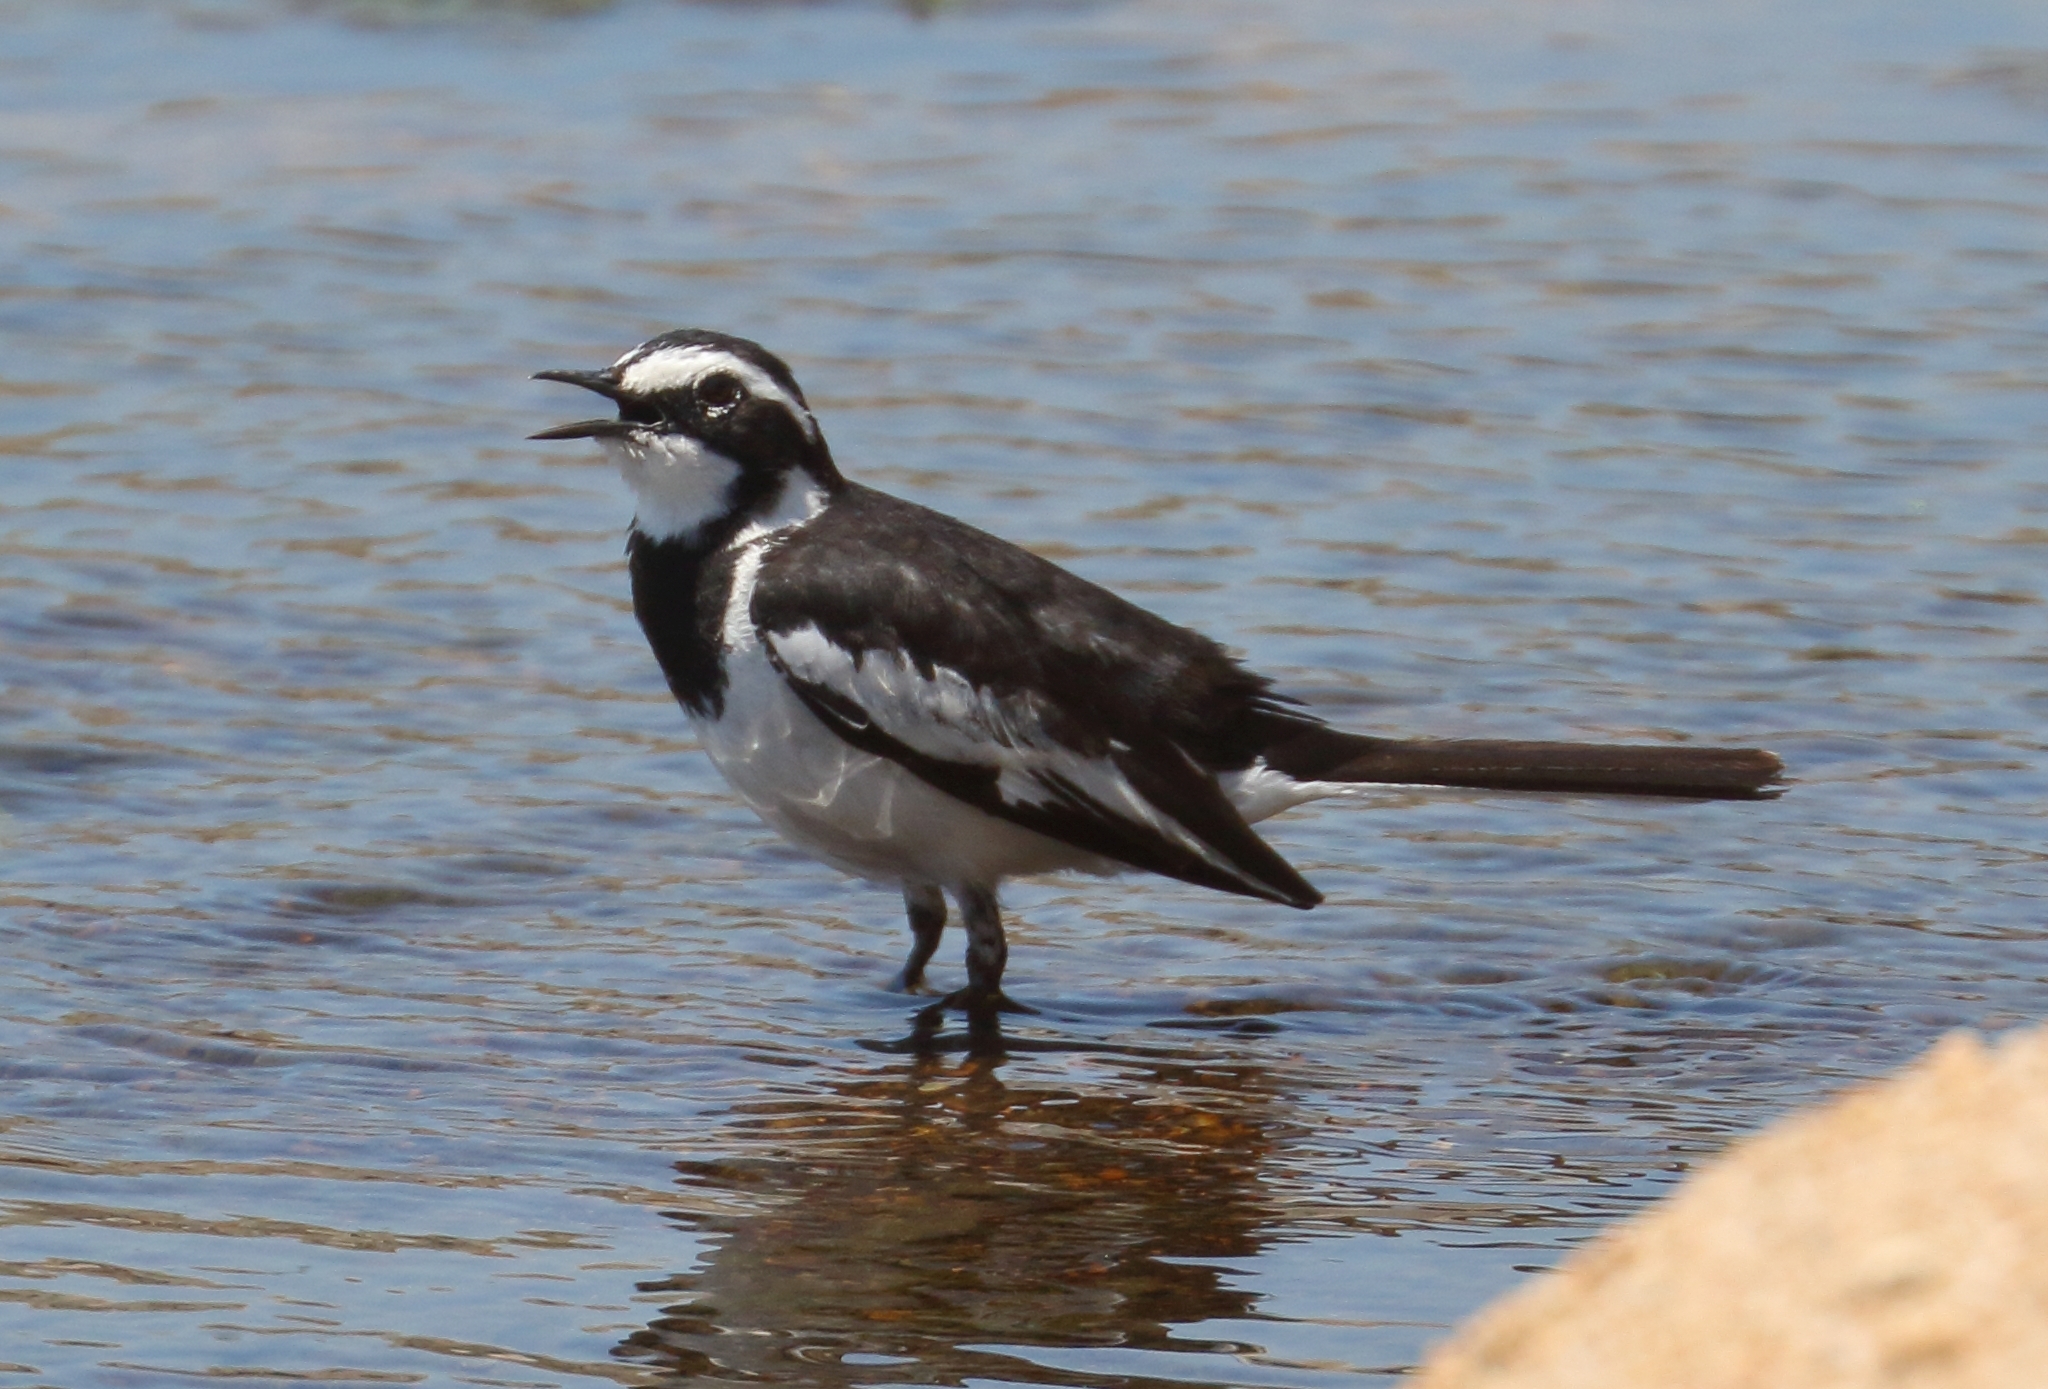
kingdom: Animalia
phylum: Chordata
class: Aves
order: Passeriformes
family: Motacillidae
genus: Motacilla
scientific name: Motacilla aguimp
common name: African pied wagtail
